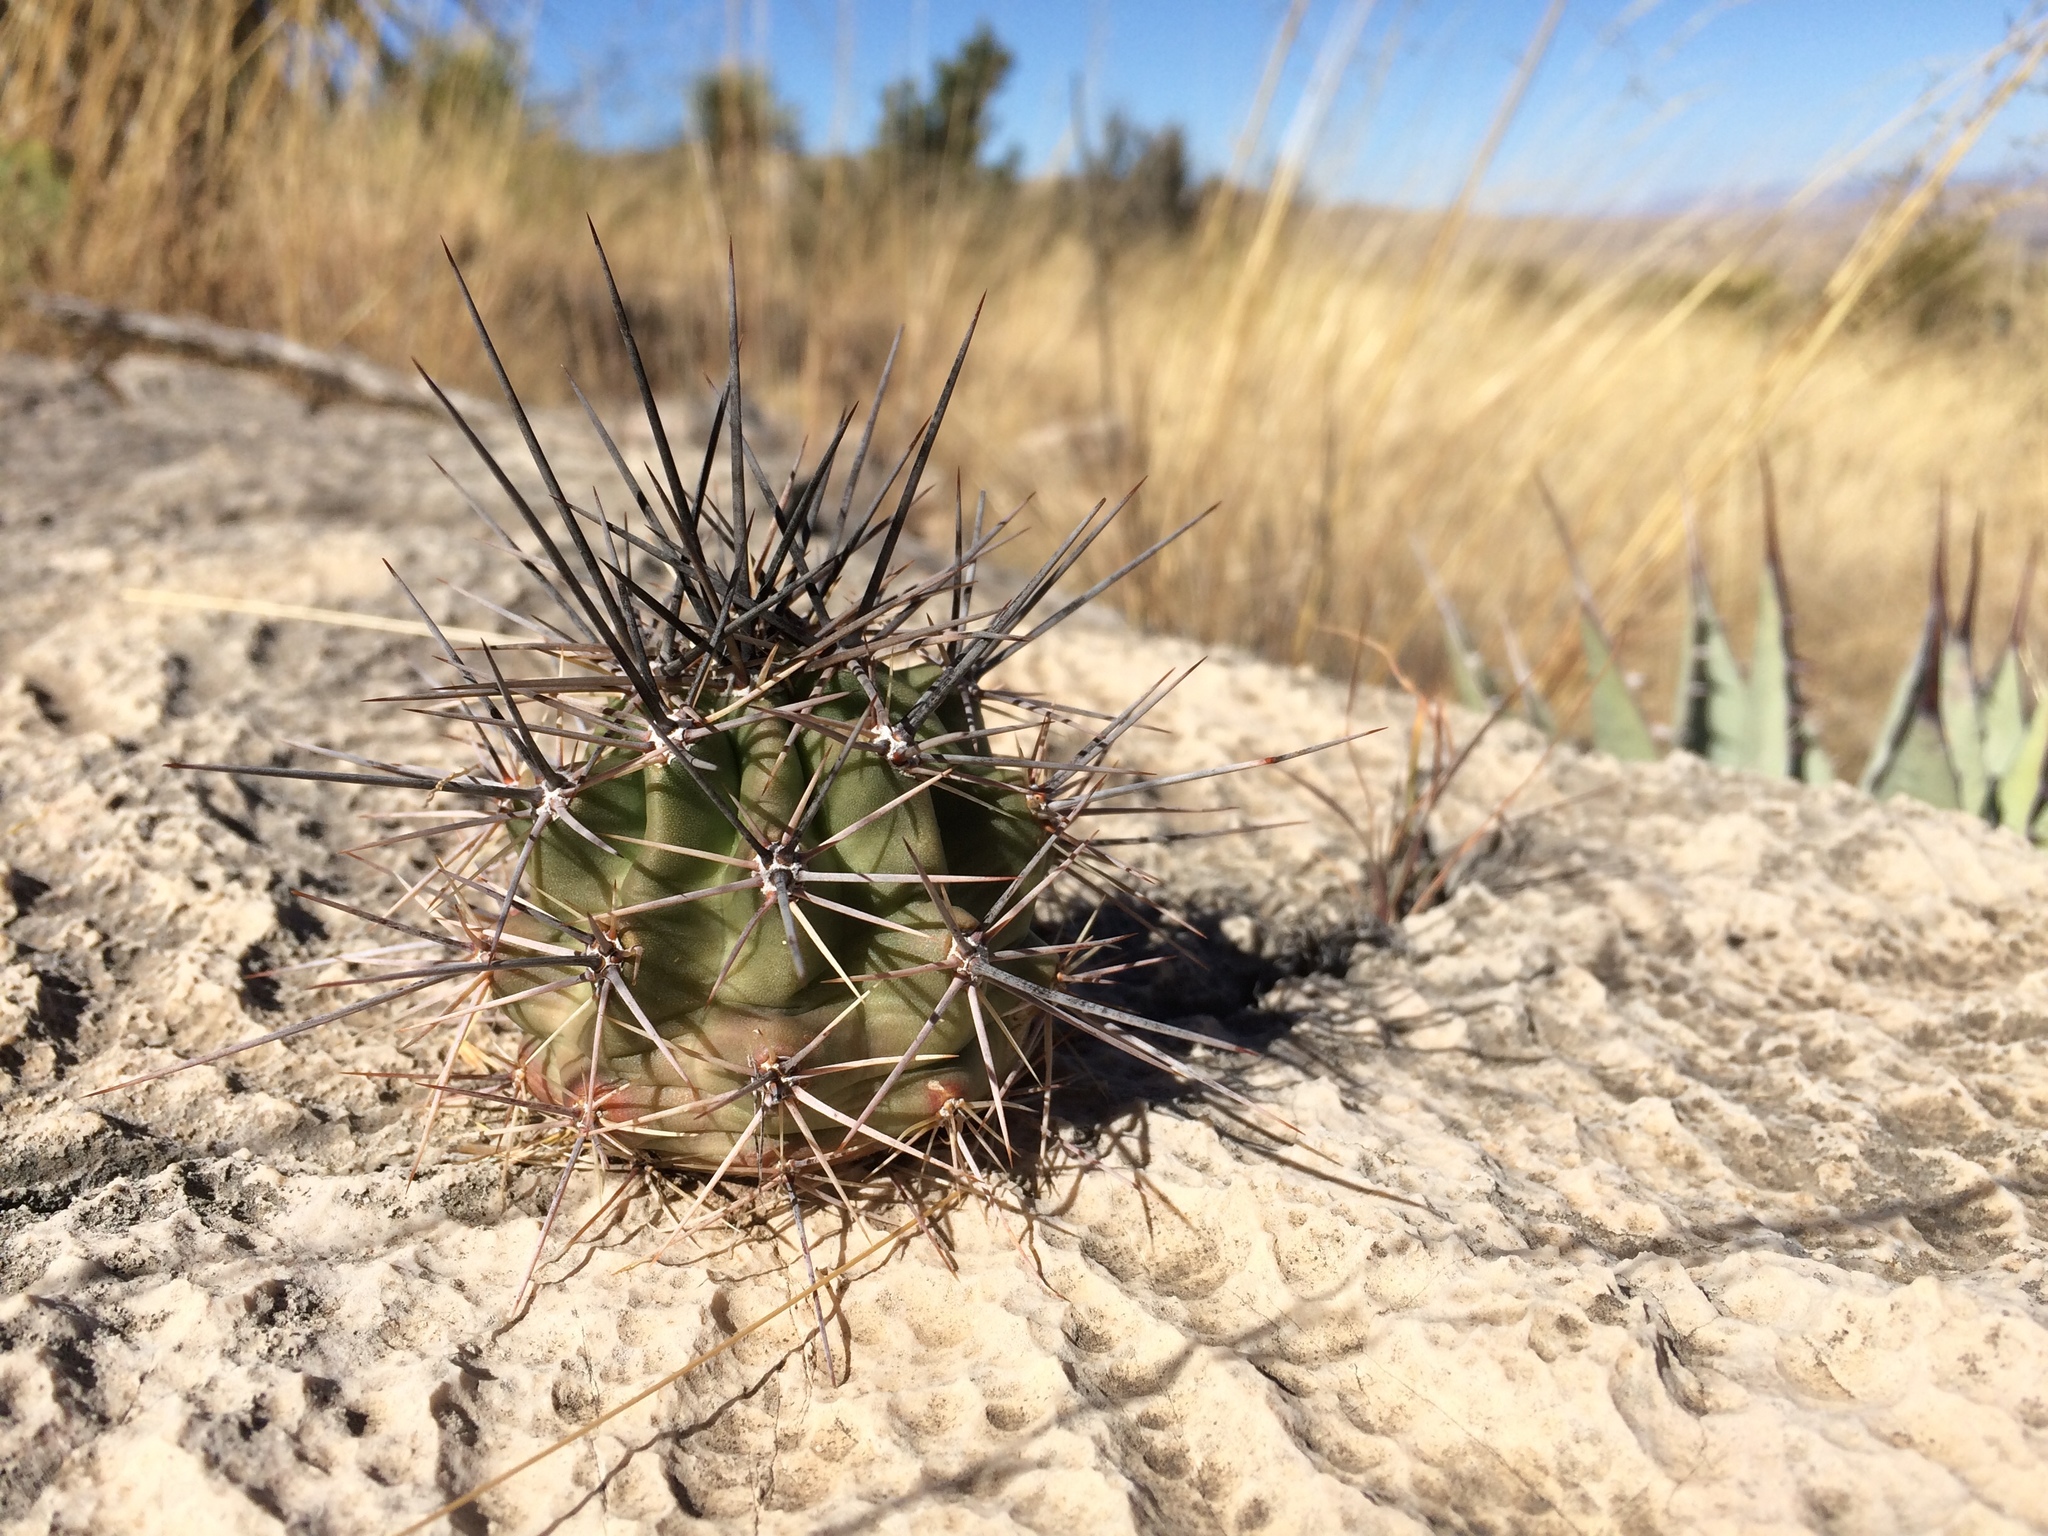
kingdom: Plantae
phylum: Tracheophyta
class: Magnoliopsida
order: Caryophyllales
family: Cactaceae
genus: Echinocereus
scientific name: Echinocereus coccineus
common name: Scarlet hedgehog cactus
